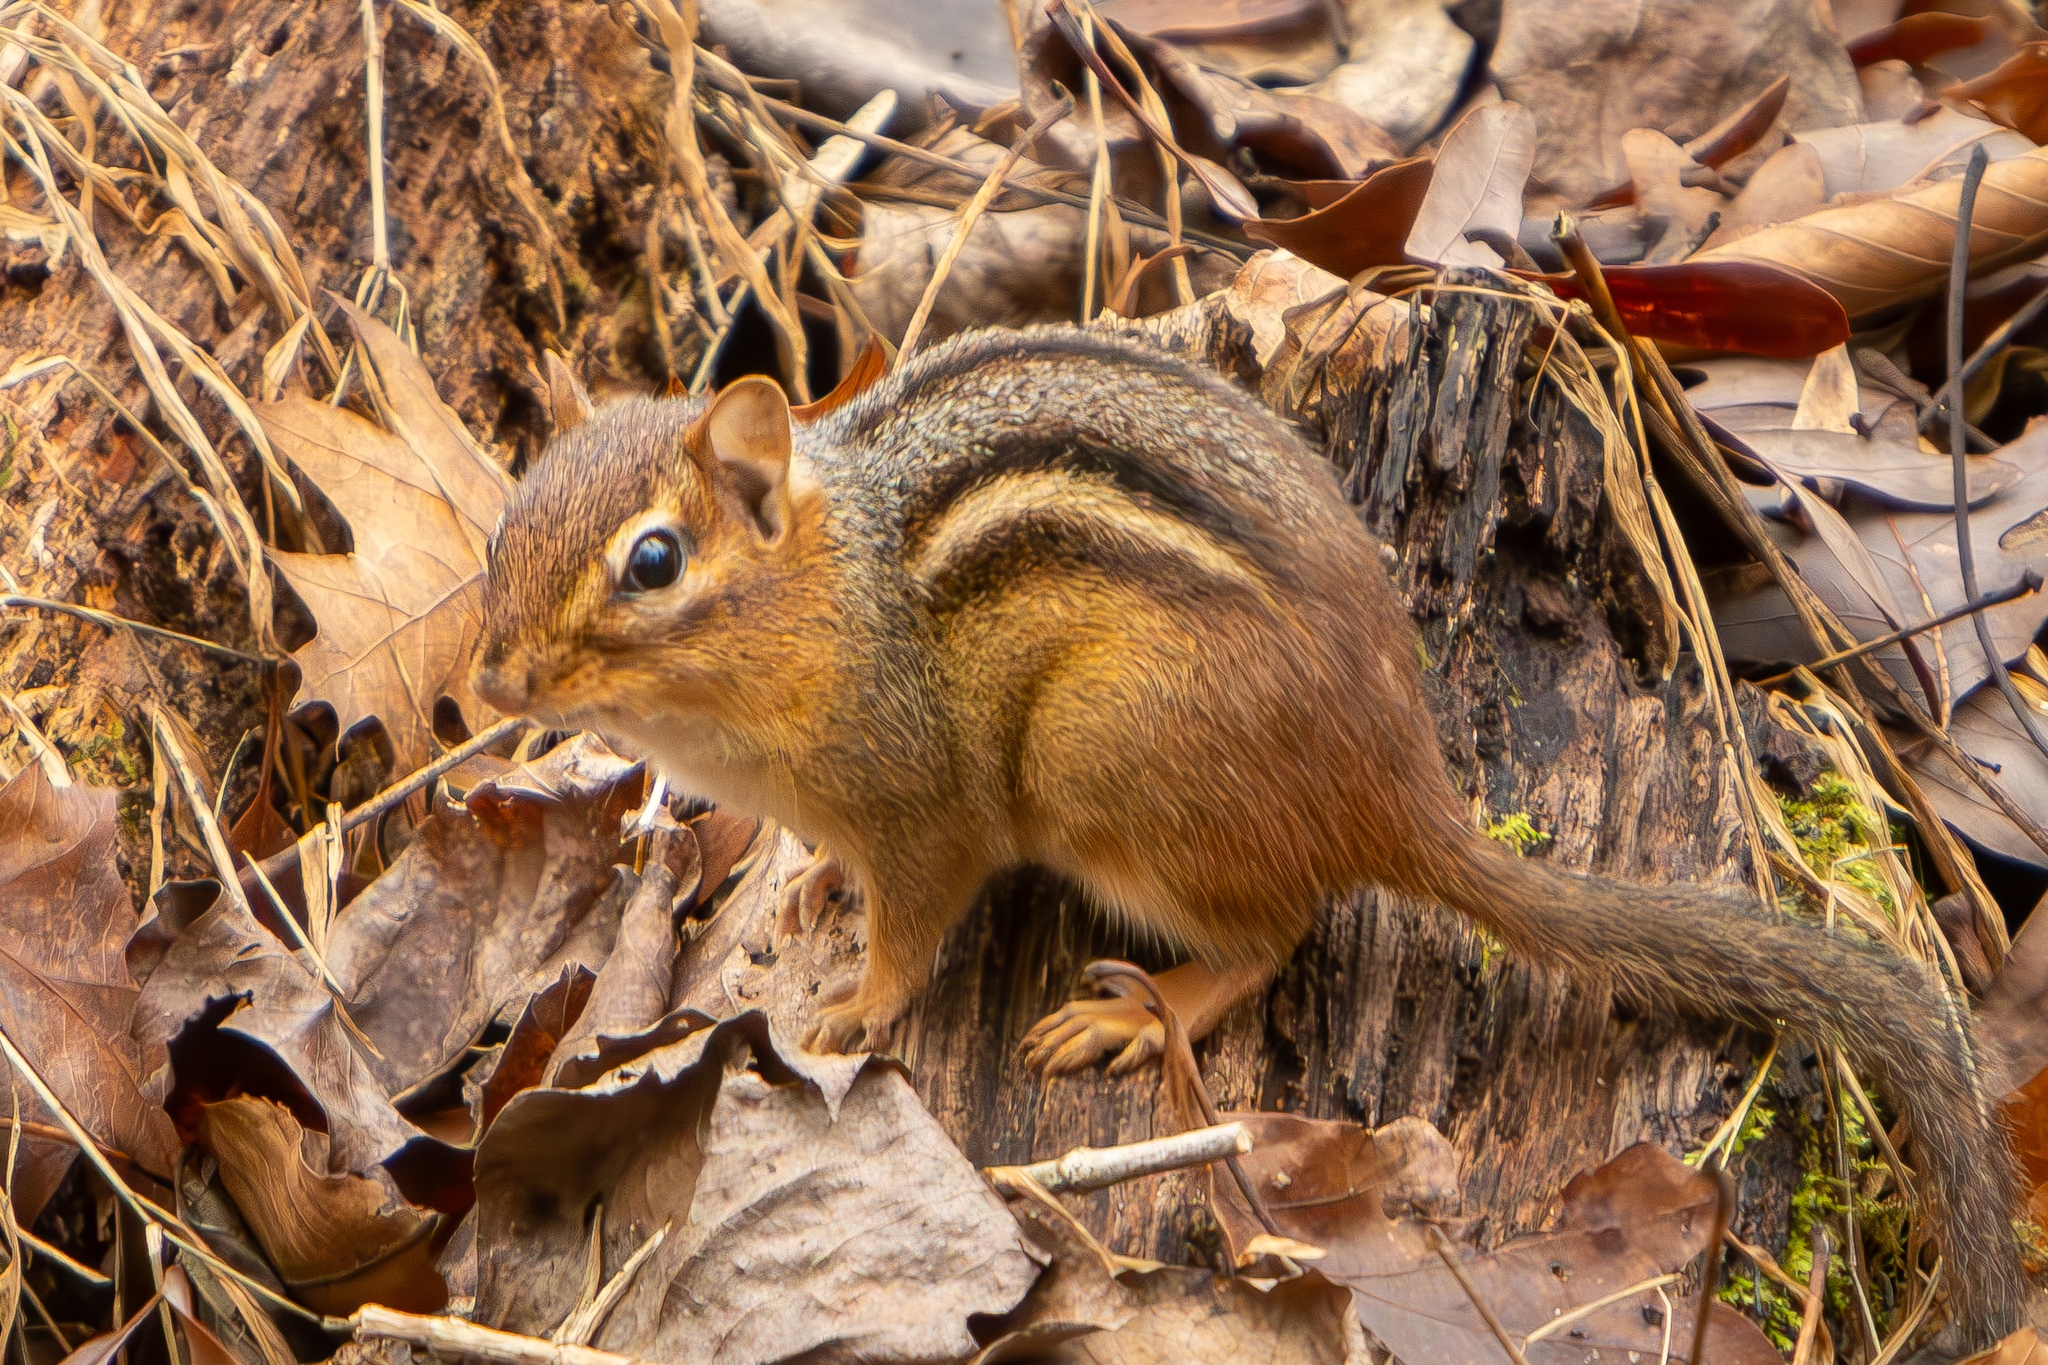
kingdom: Animalia
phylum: Chordata
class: Mammalia
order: Rodentia
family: Sciuridae
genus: Tamias
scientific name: Tamias striatus
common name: Eastern chipmunk
